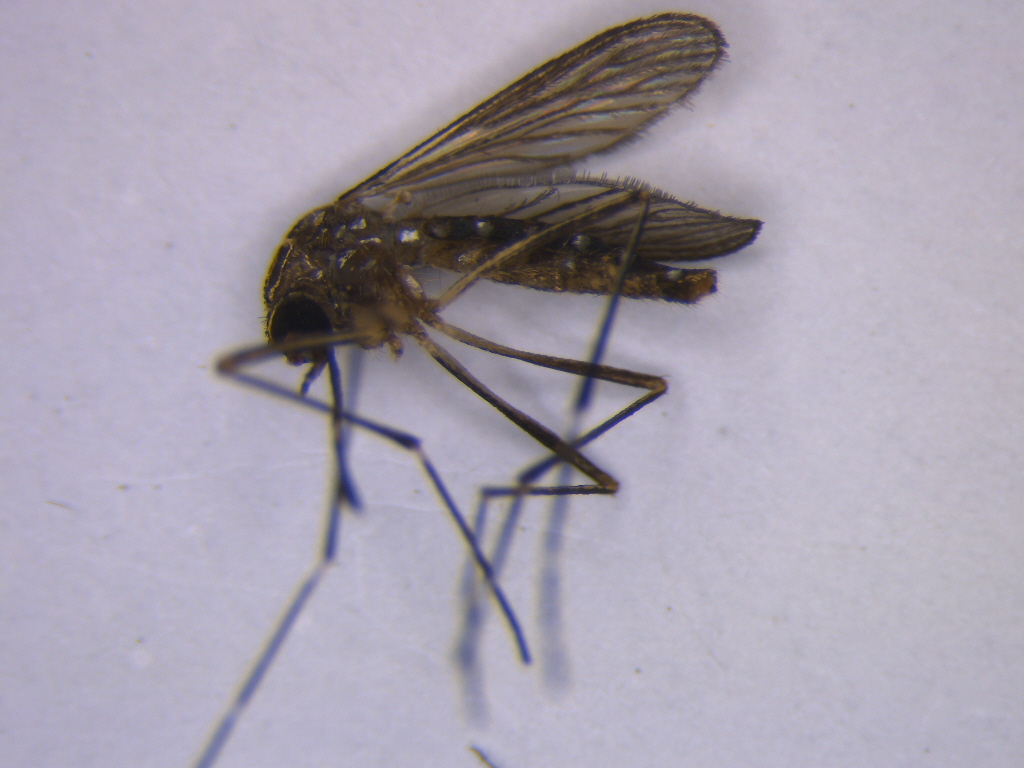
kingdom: Animalia
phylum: Arthropoda
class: Insecta
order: Diptera
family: Culicidae
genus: Aedes
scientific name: Aedes notoscriptus
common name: Australian backyard mosquito
